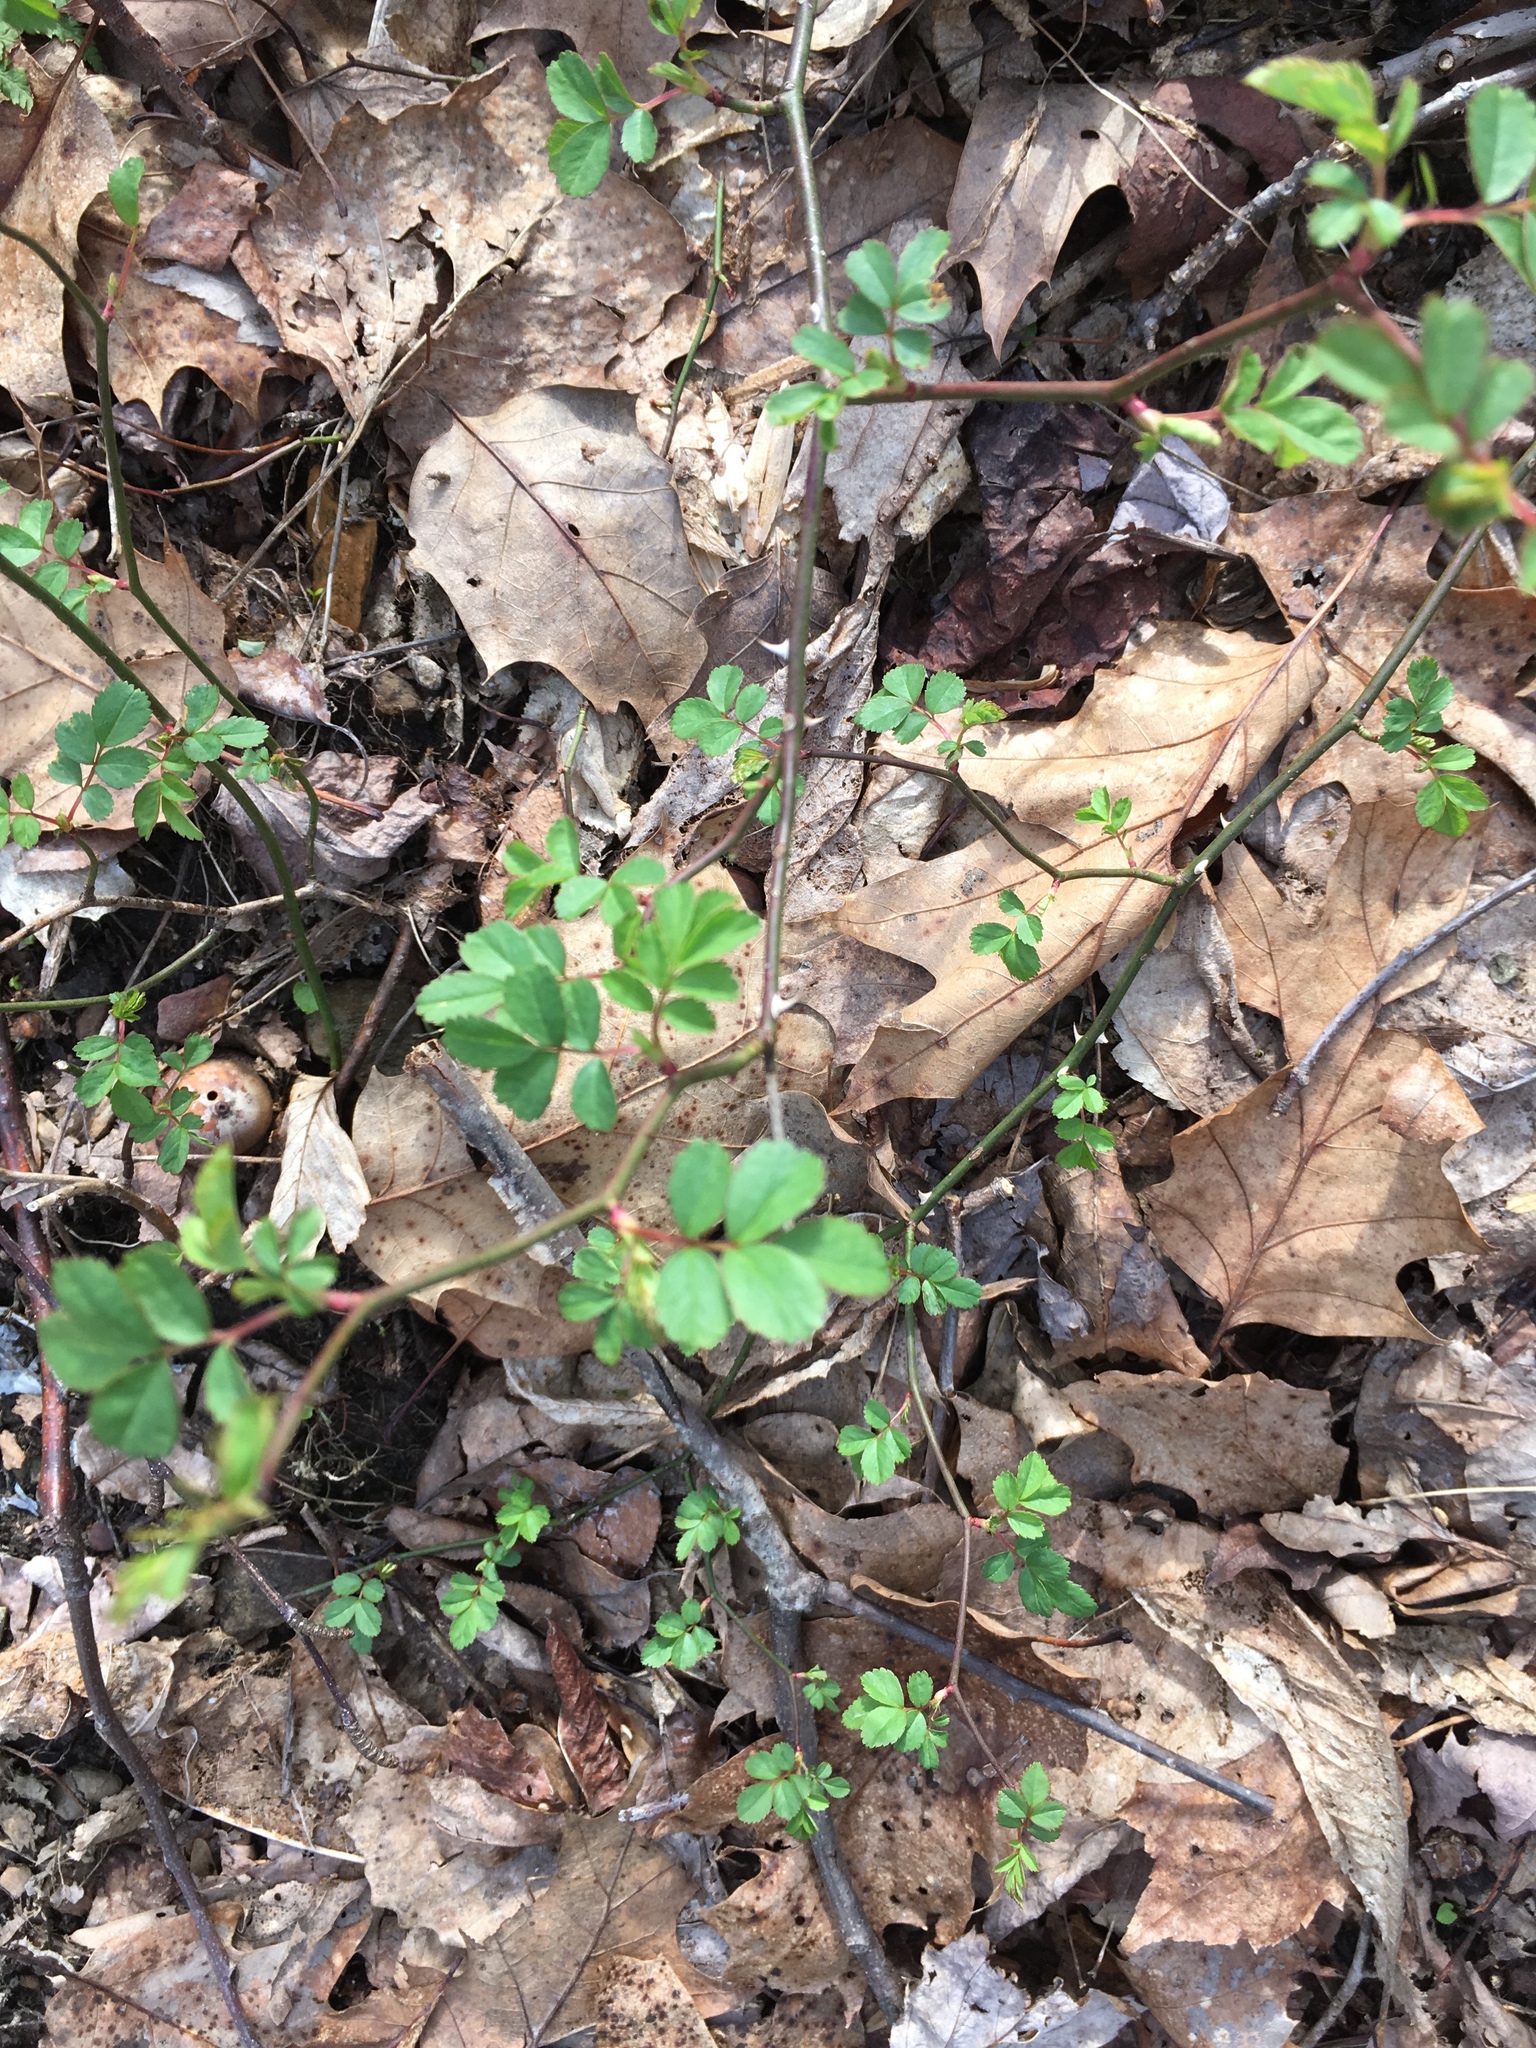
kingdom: Plantae
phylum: Tracheophyta
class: Magnoliopsida
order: Rosales
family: Rosaceae
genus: Rosa
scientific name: Rosa multiflora
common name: Multiflora rose
